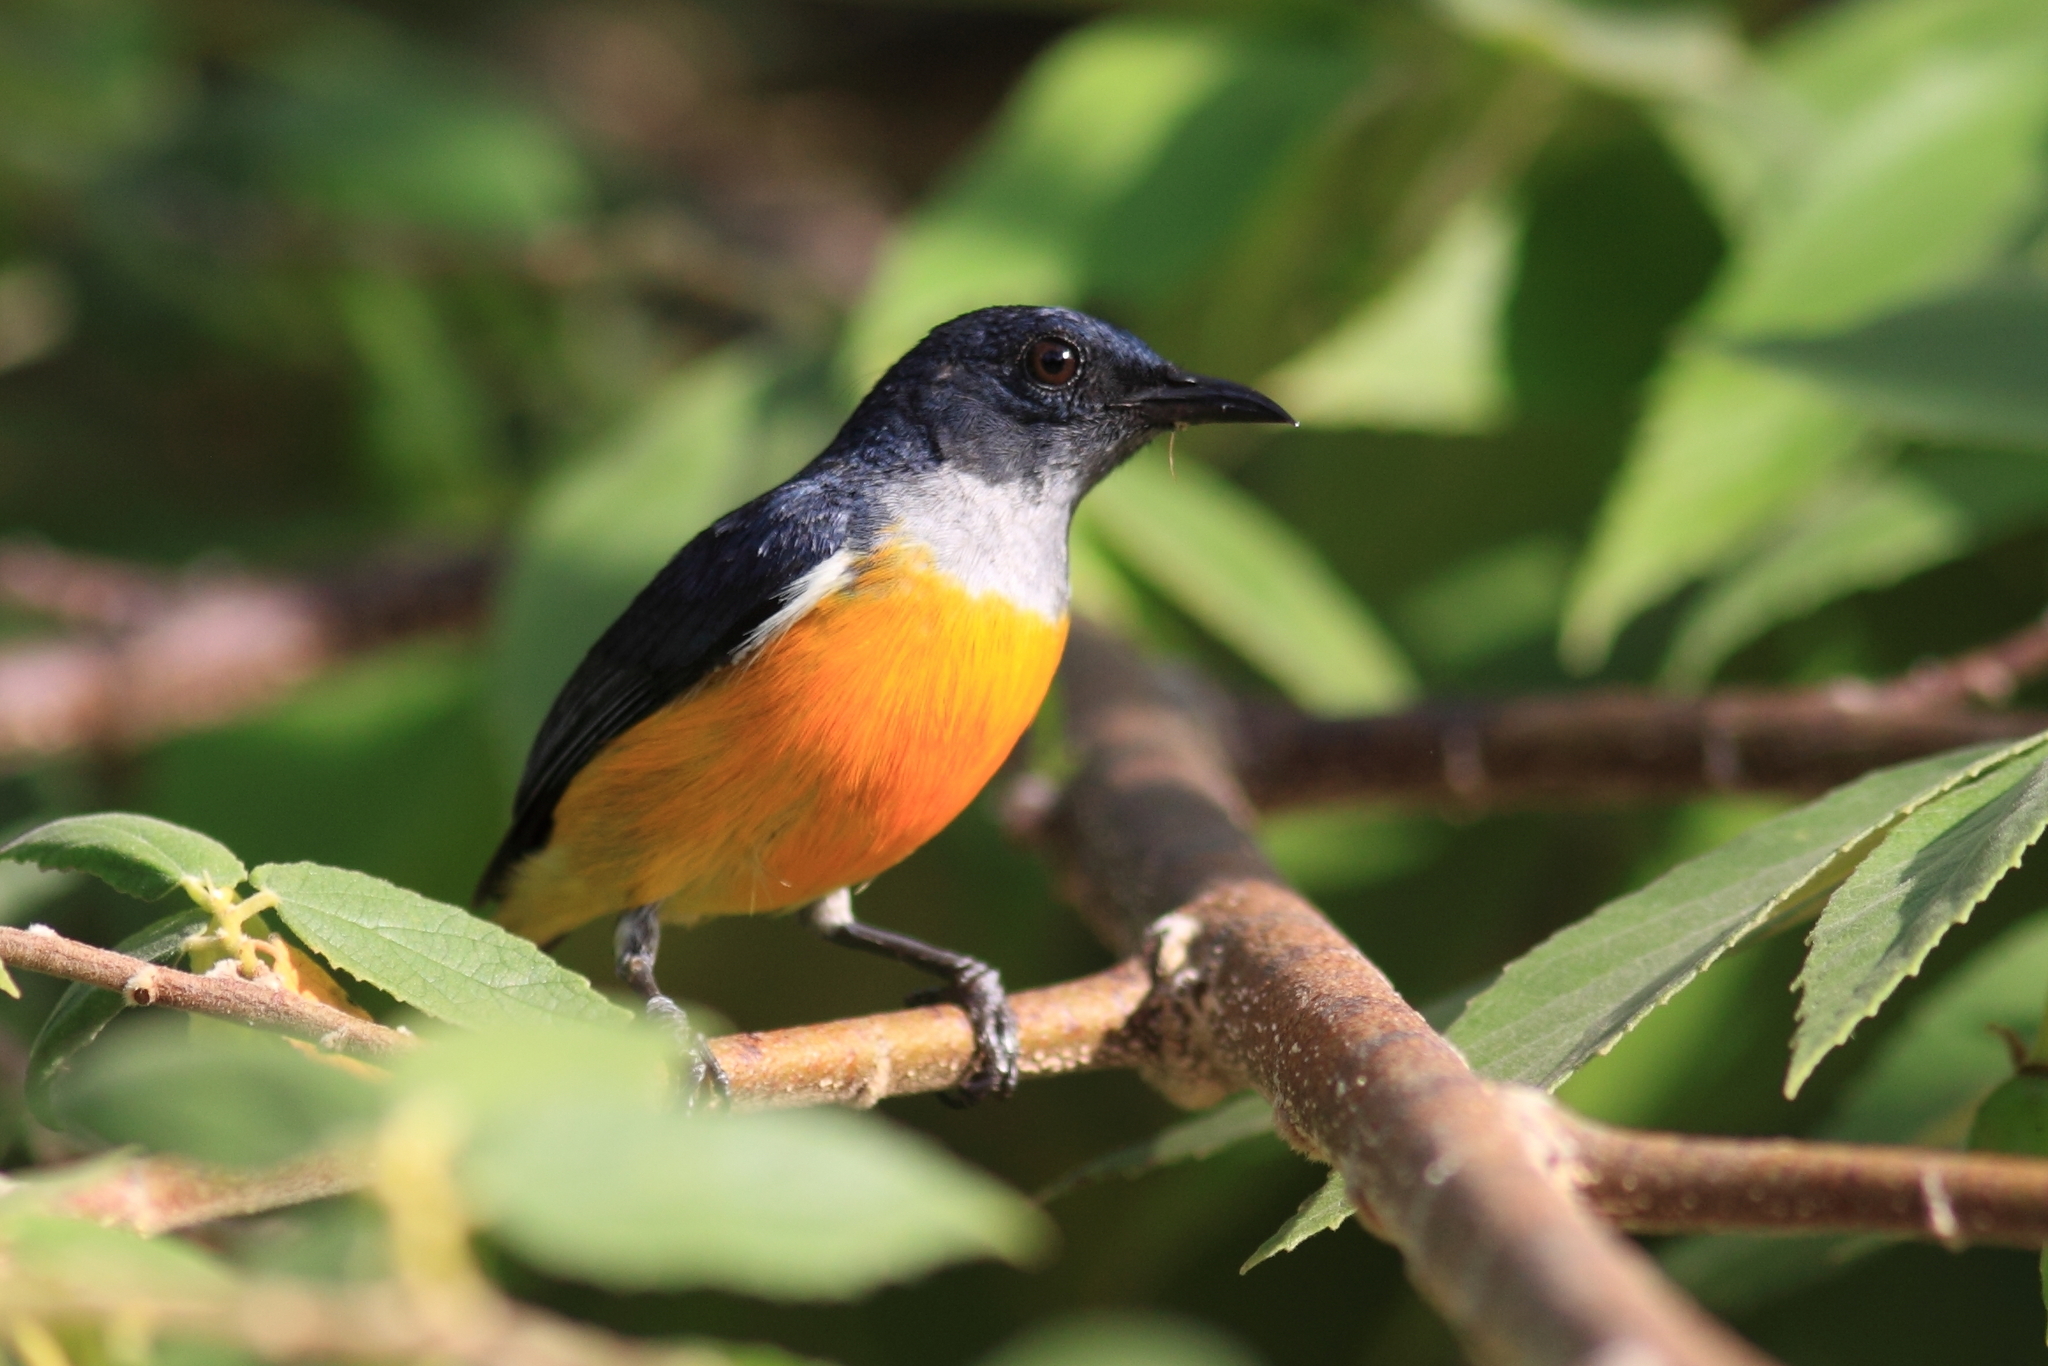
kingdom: Animalia
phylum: Chordata
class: Aves
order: Passeriformes
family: Dicaeidae
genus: Dicaeum
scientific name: Dicaeum trigonostigma
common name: Orange-bellied flowerpecker
